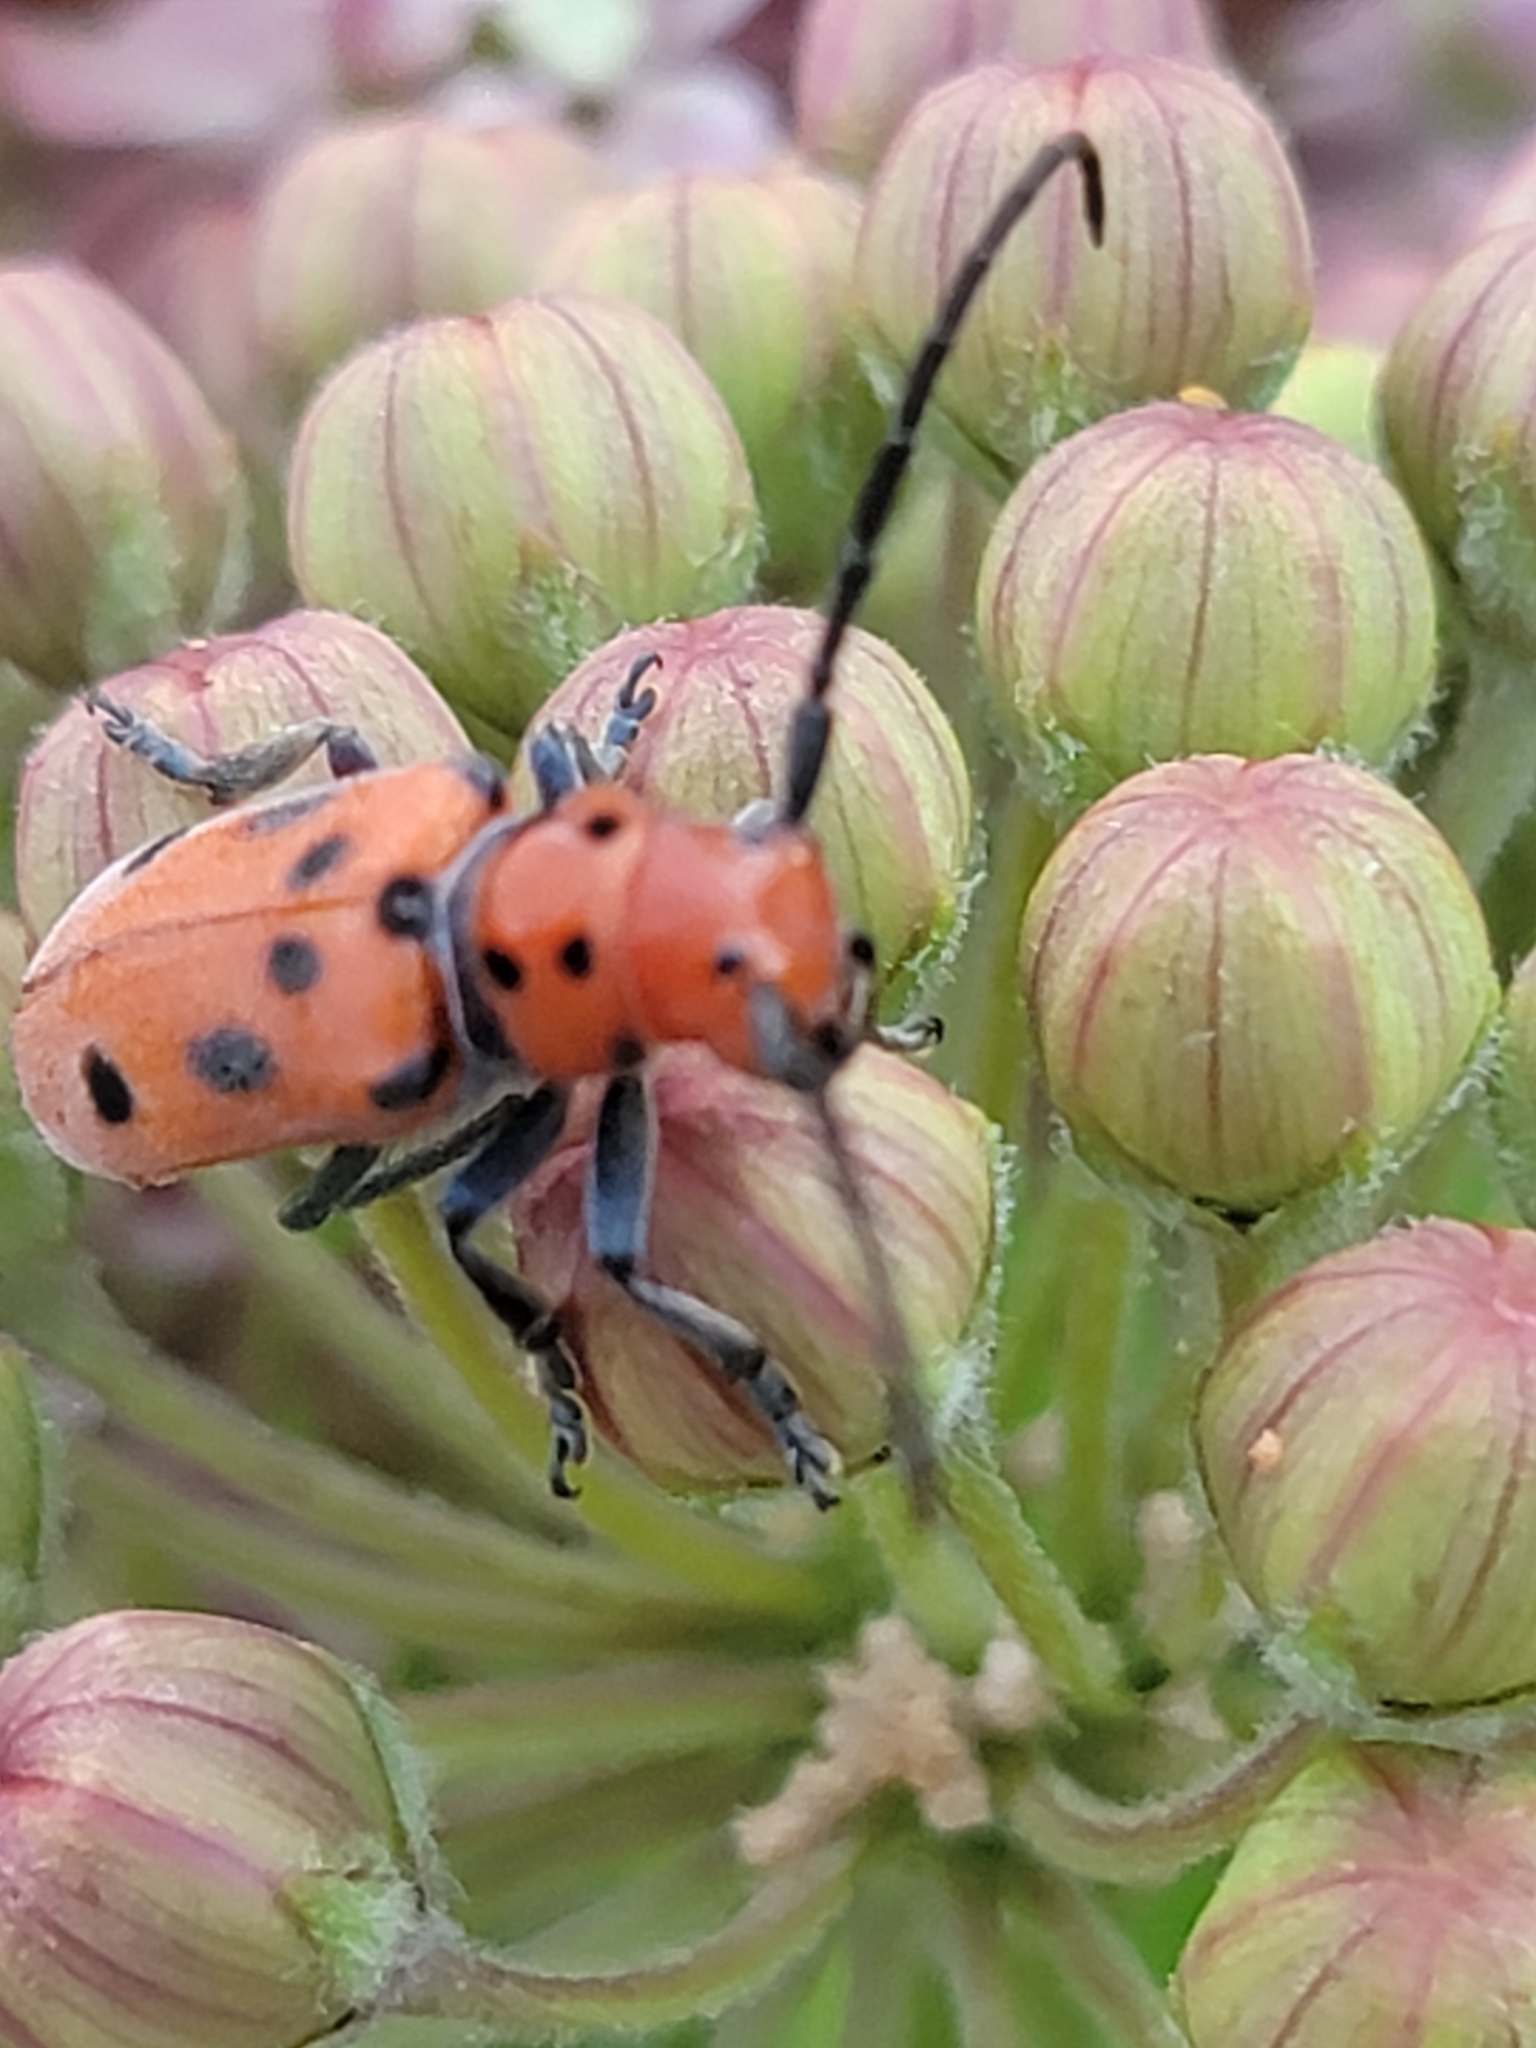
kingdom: Animalia
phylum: Arthropoda
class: Insecta
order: Coleoptera
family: Cerambycidae
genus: Tetraopes
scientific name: Tetraopes tetrophthalmus
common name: Red milkweed beetle
